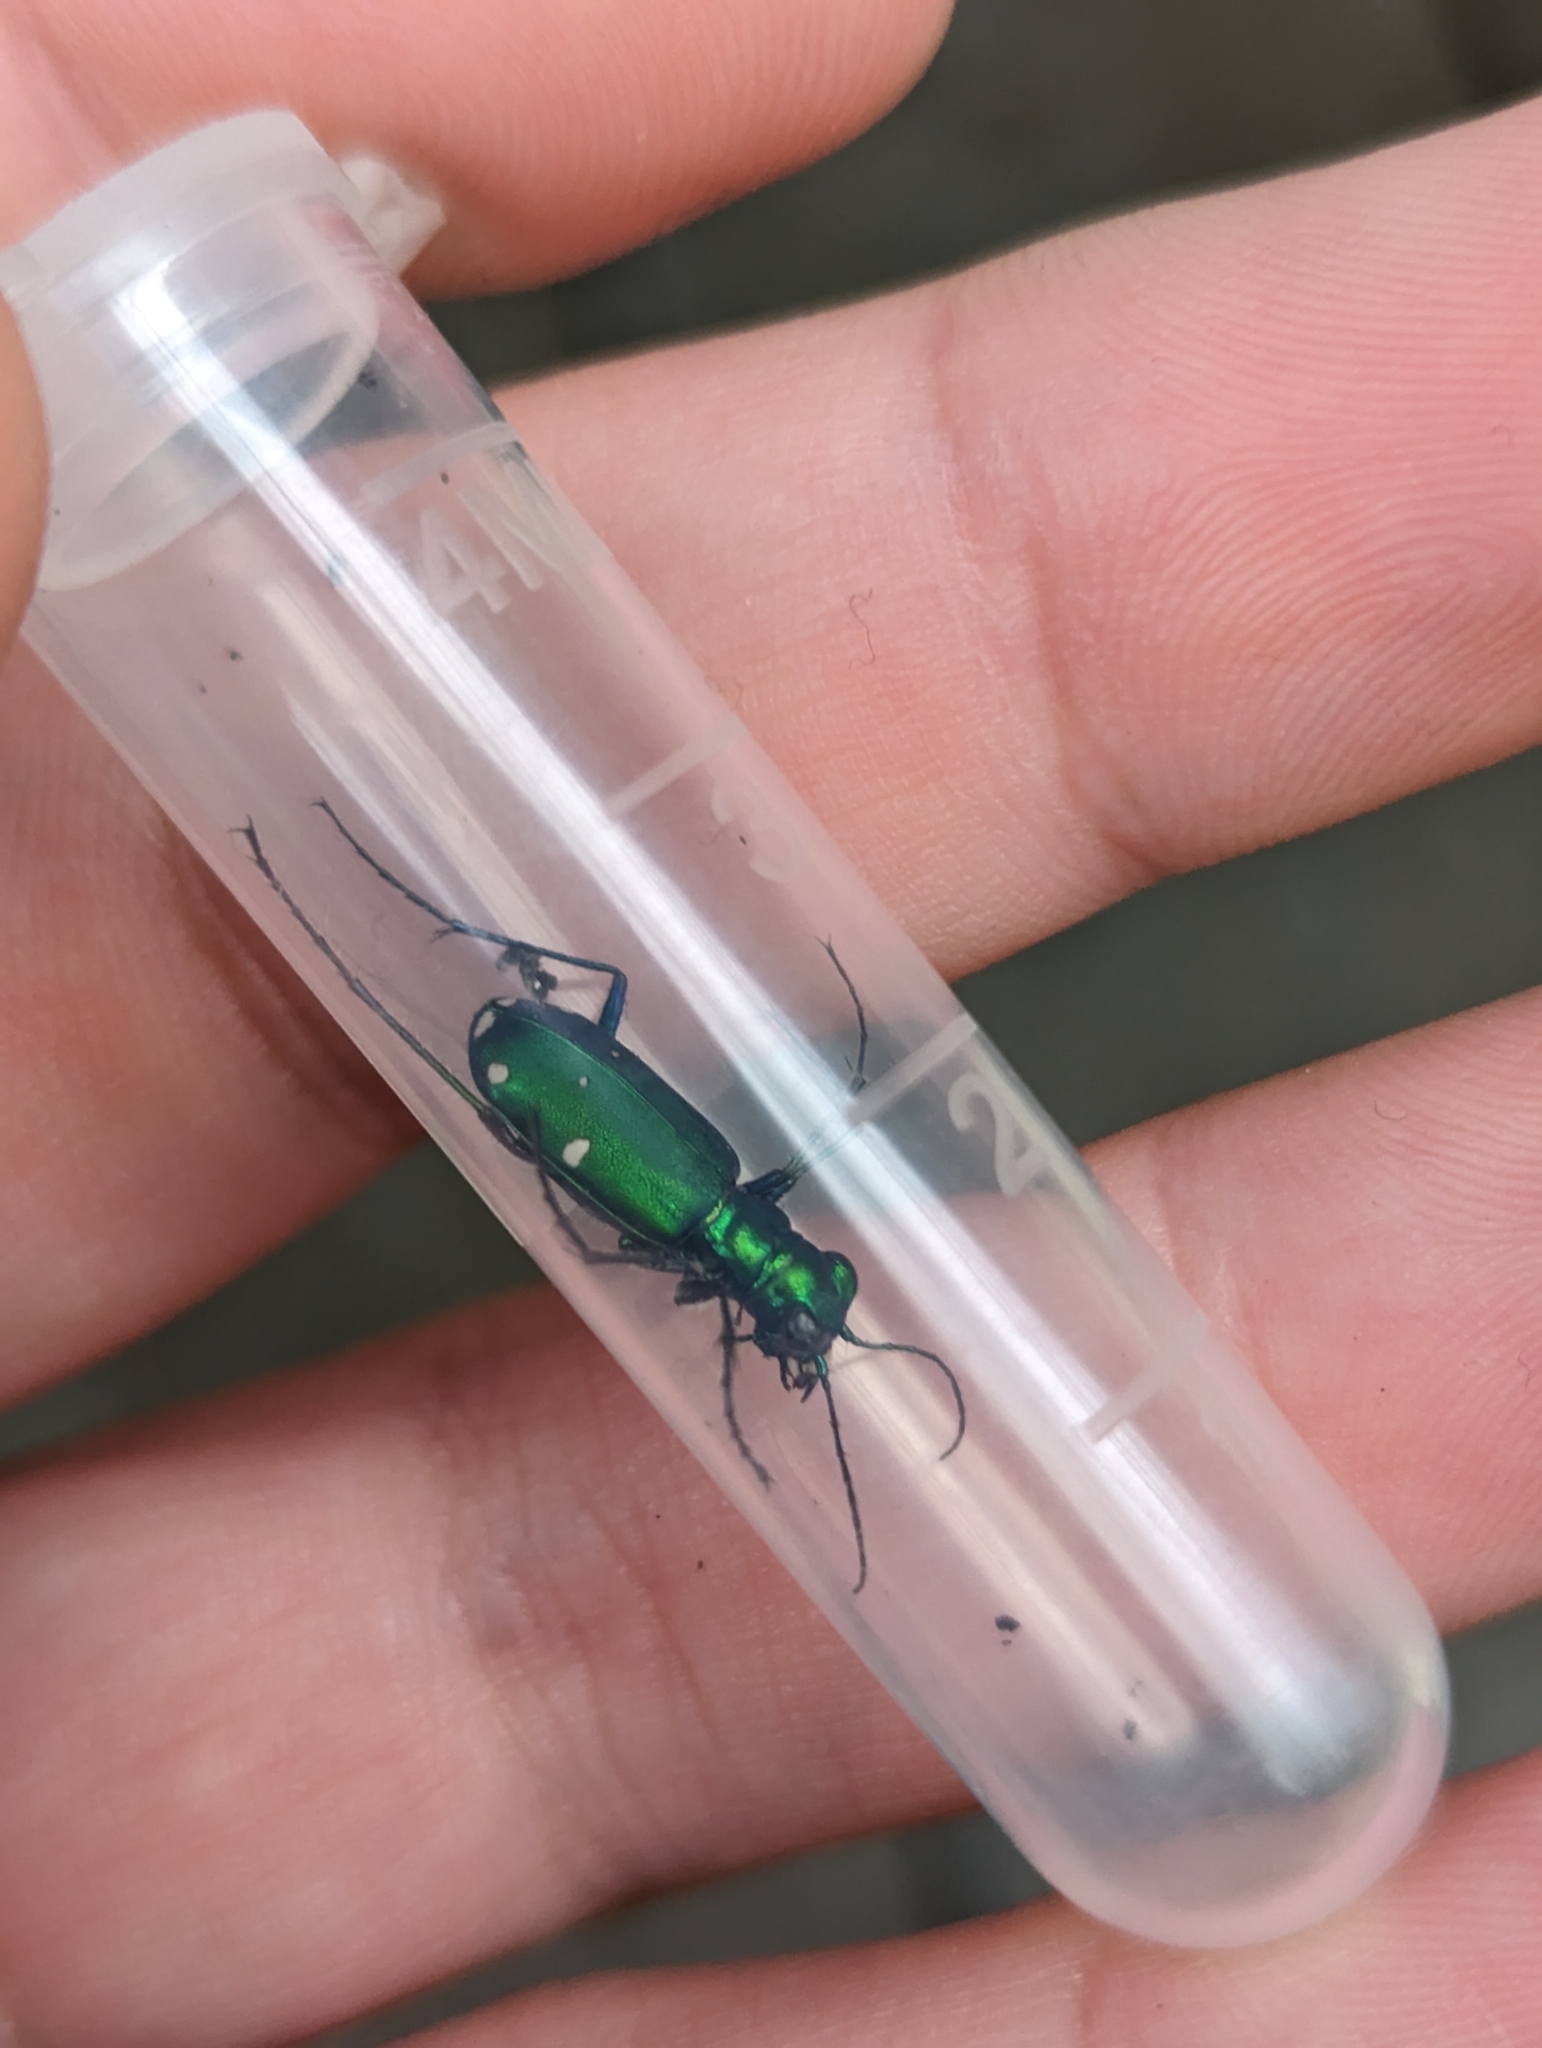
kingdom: Animalia
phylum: Arthropoda
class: Insecta
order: Coleoptera
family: Carabidae
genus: Cicindela
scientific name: Cicindela sexguttata
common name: Six-spotted tiger beetle
